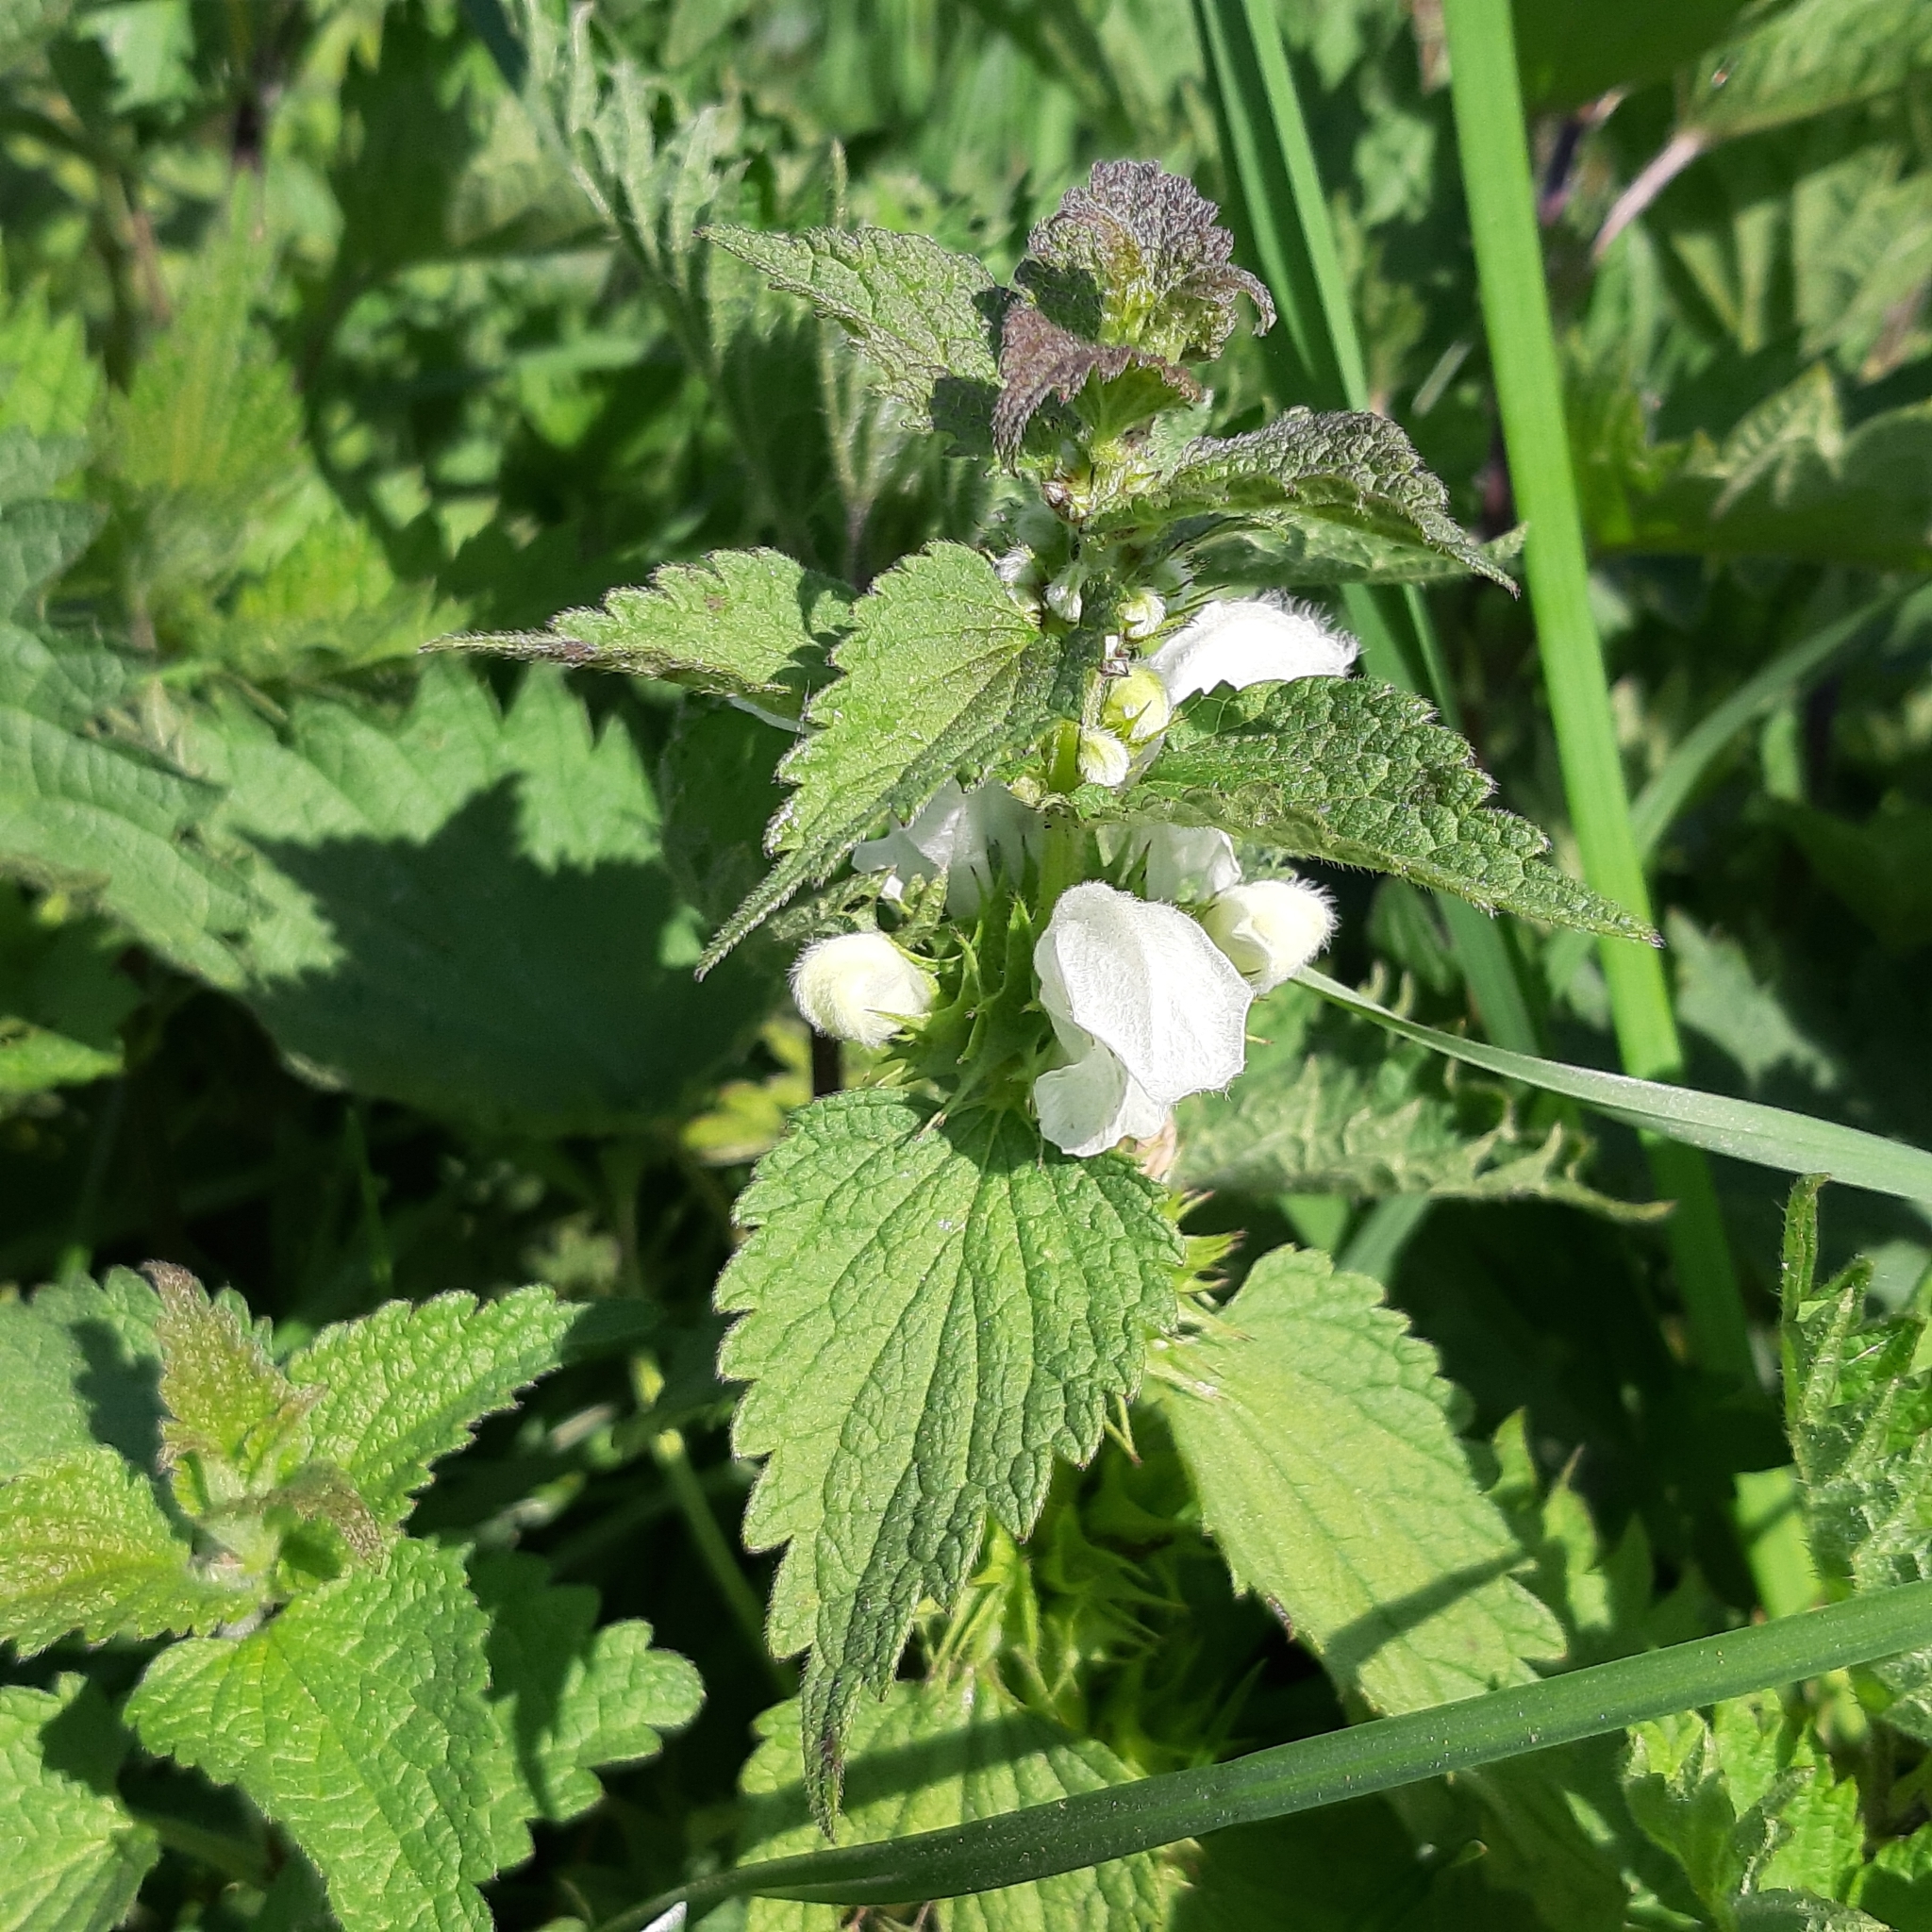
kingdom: Plantae
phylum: Tracheophyta
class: Magnoliopsida
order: Lamiales
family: Lamiaceae
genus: Lamium
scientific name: Lamium album
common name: White dead-nettle
